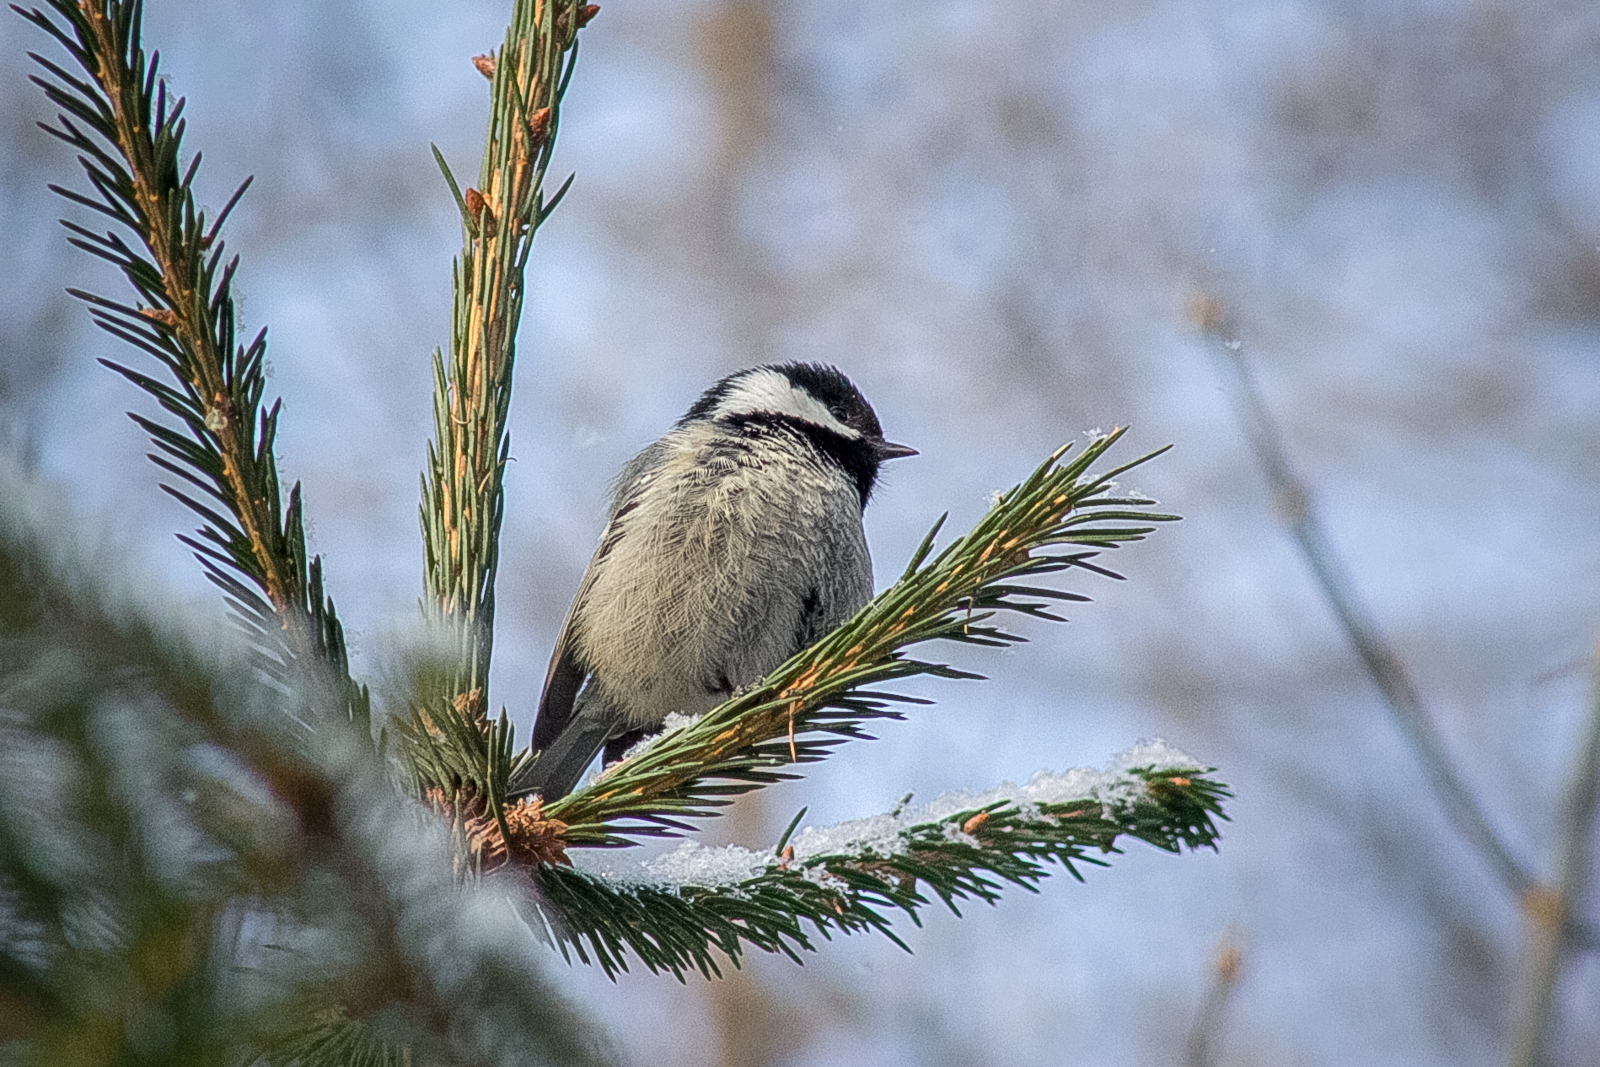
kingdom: Animalia
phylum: Chordata
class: Aves
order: Passeriformes
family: Paridae
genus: Periparus
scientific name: Periparus ater
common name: Coal tit
